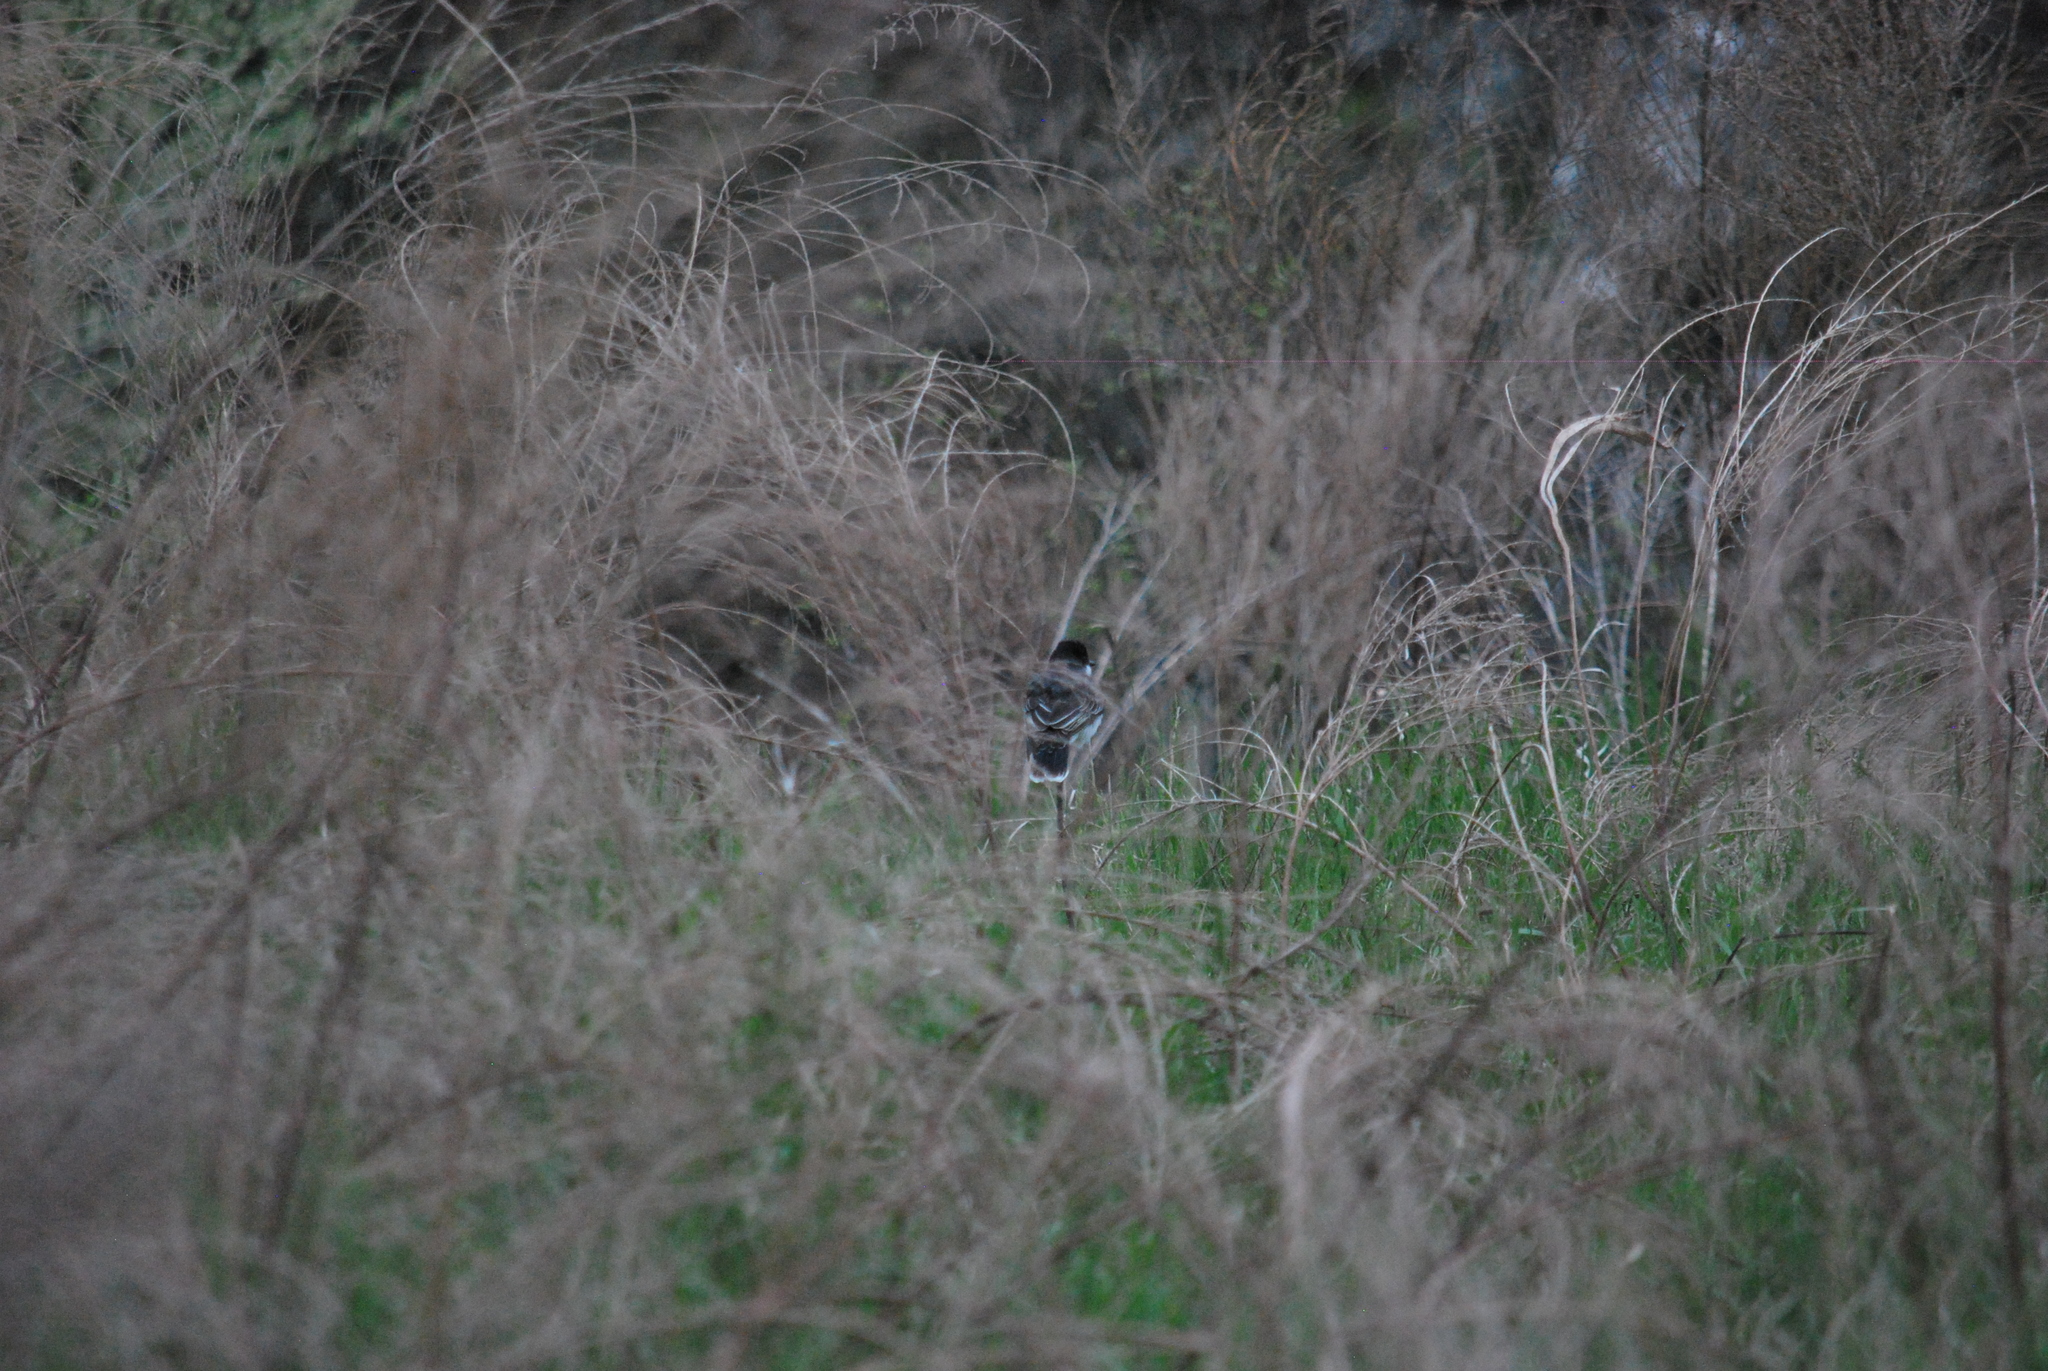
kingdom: Animalia
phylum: Chordata
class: Aves
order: Passeriformes
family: Tyrannidae
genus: Tyrannus
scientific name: Tyrannus tyrannus
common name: Eastern kingbird
